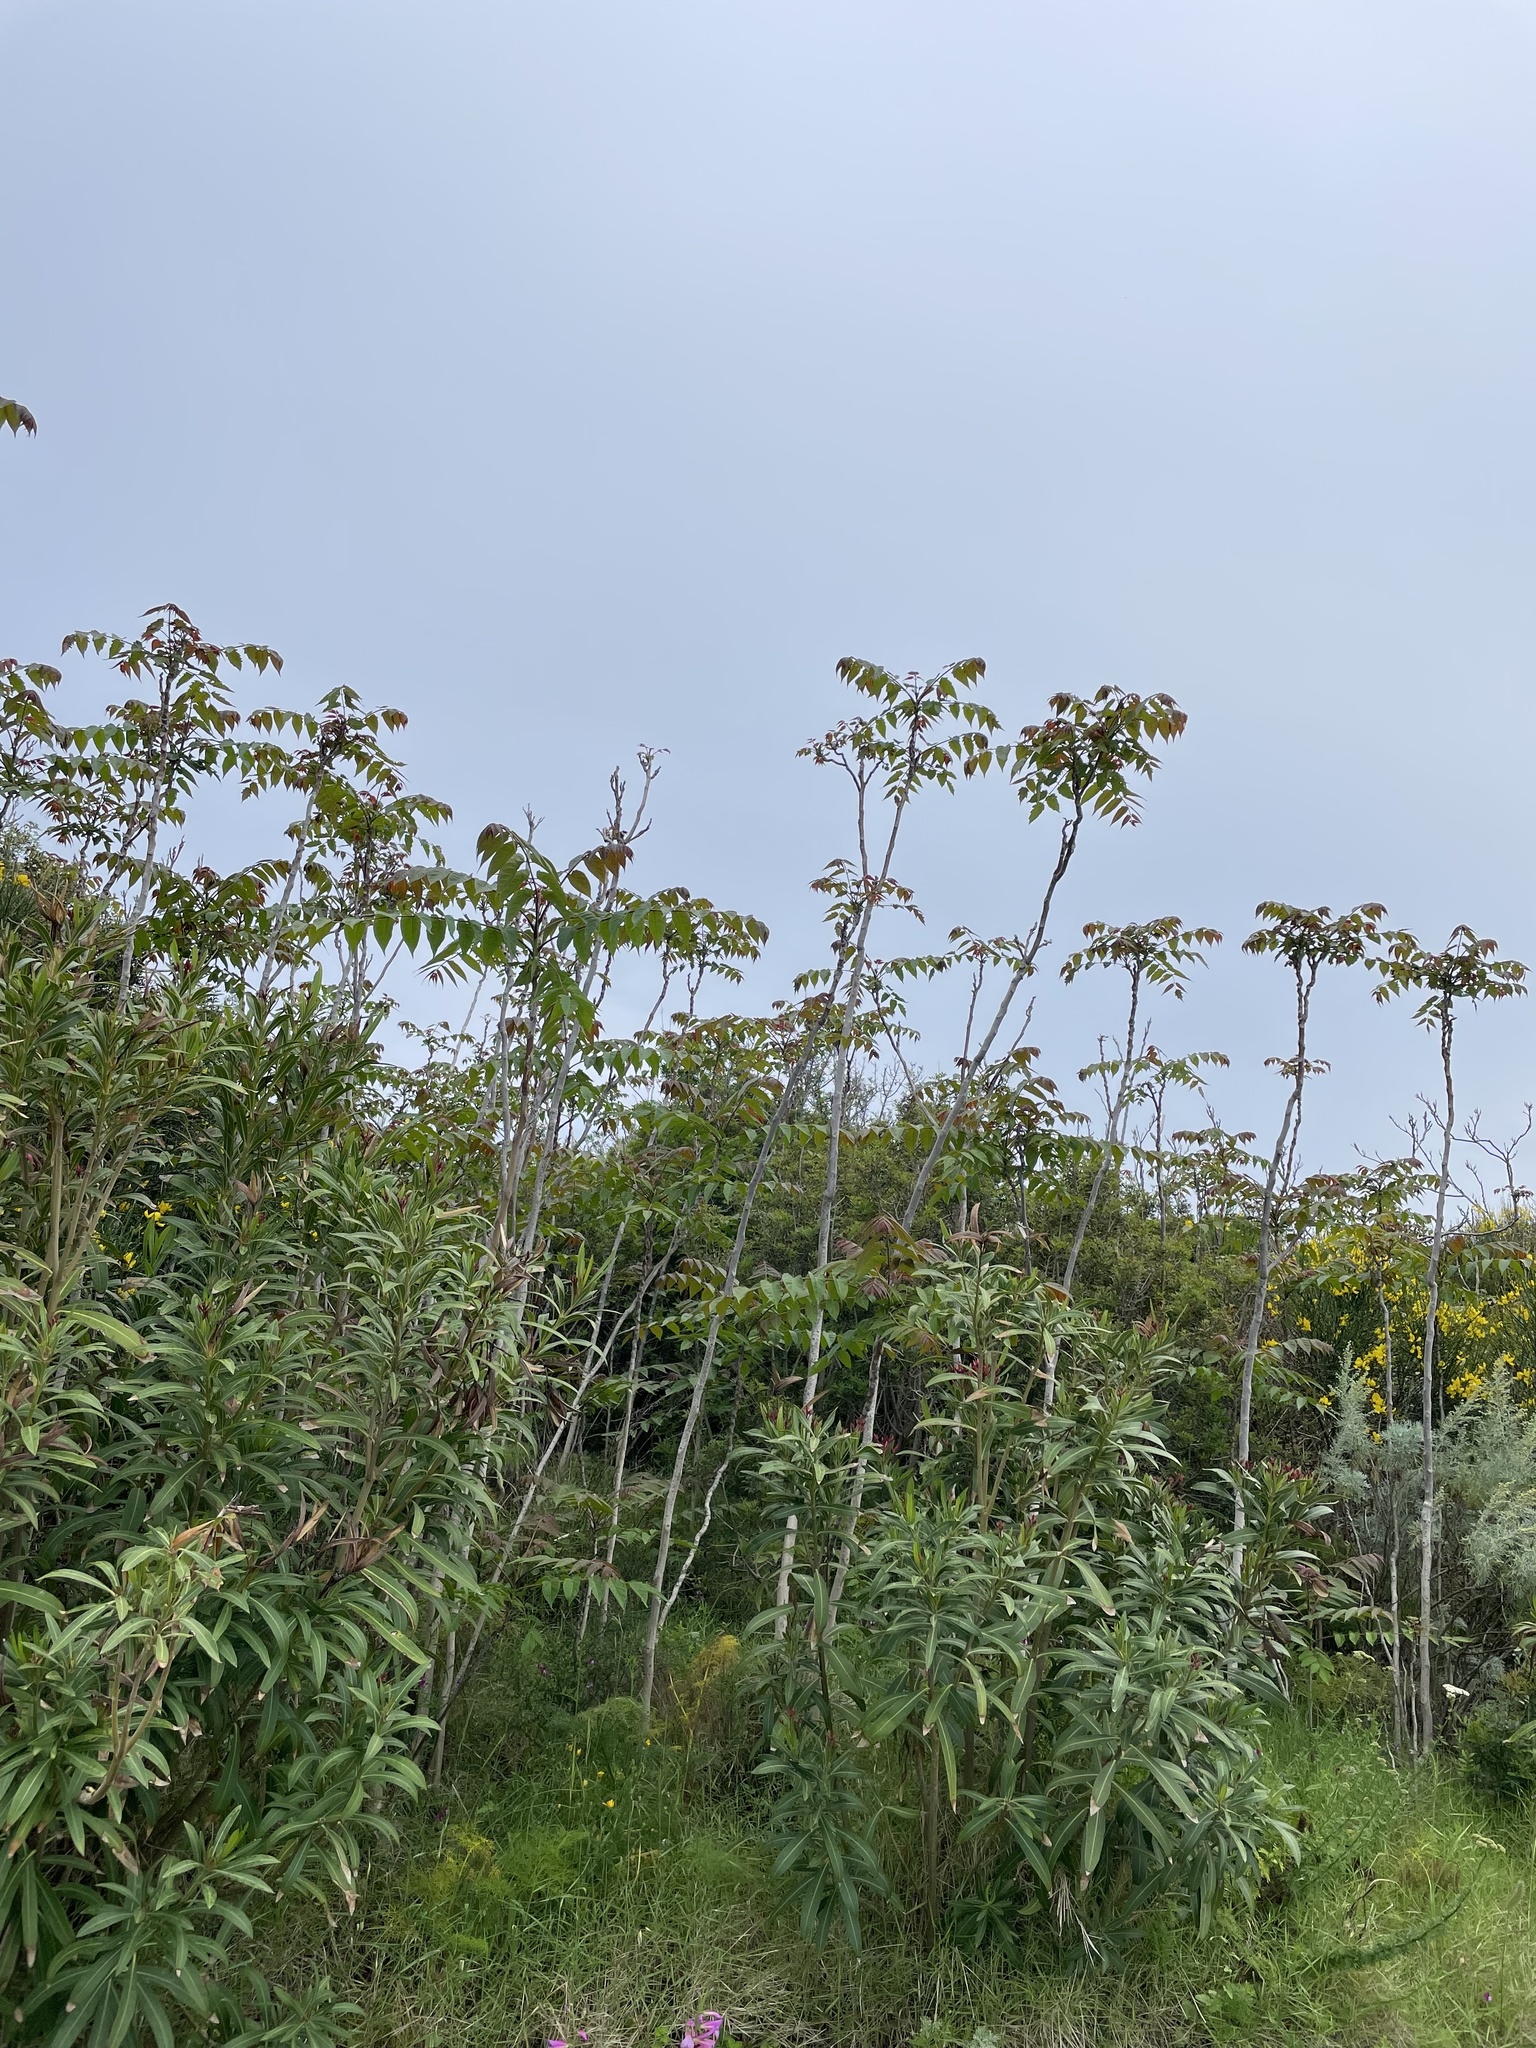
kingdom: Plantae
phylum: Tracheophyta
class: Magnoliopsida
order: Sapindales
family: Simaroubaceae
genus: Ailanthus
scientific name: Ailanthus altissima
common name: Tree-of-heaven
